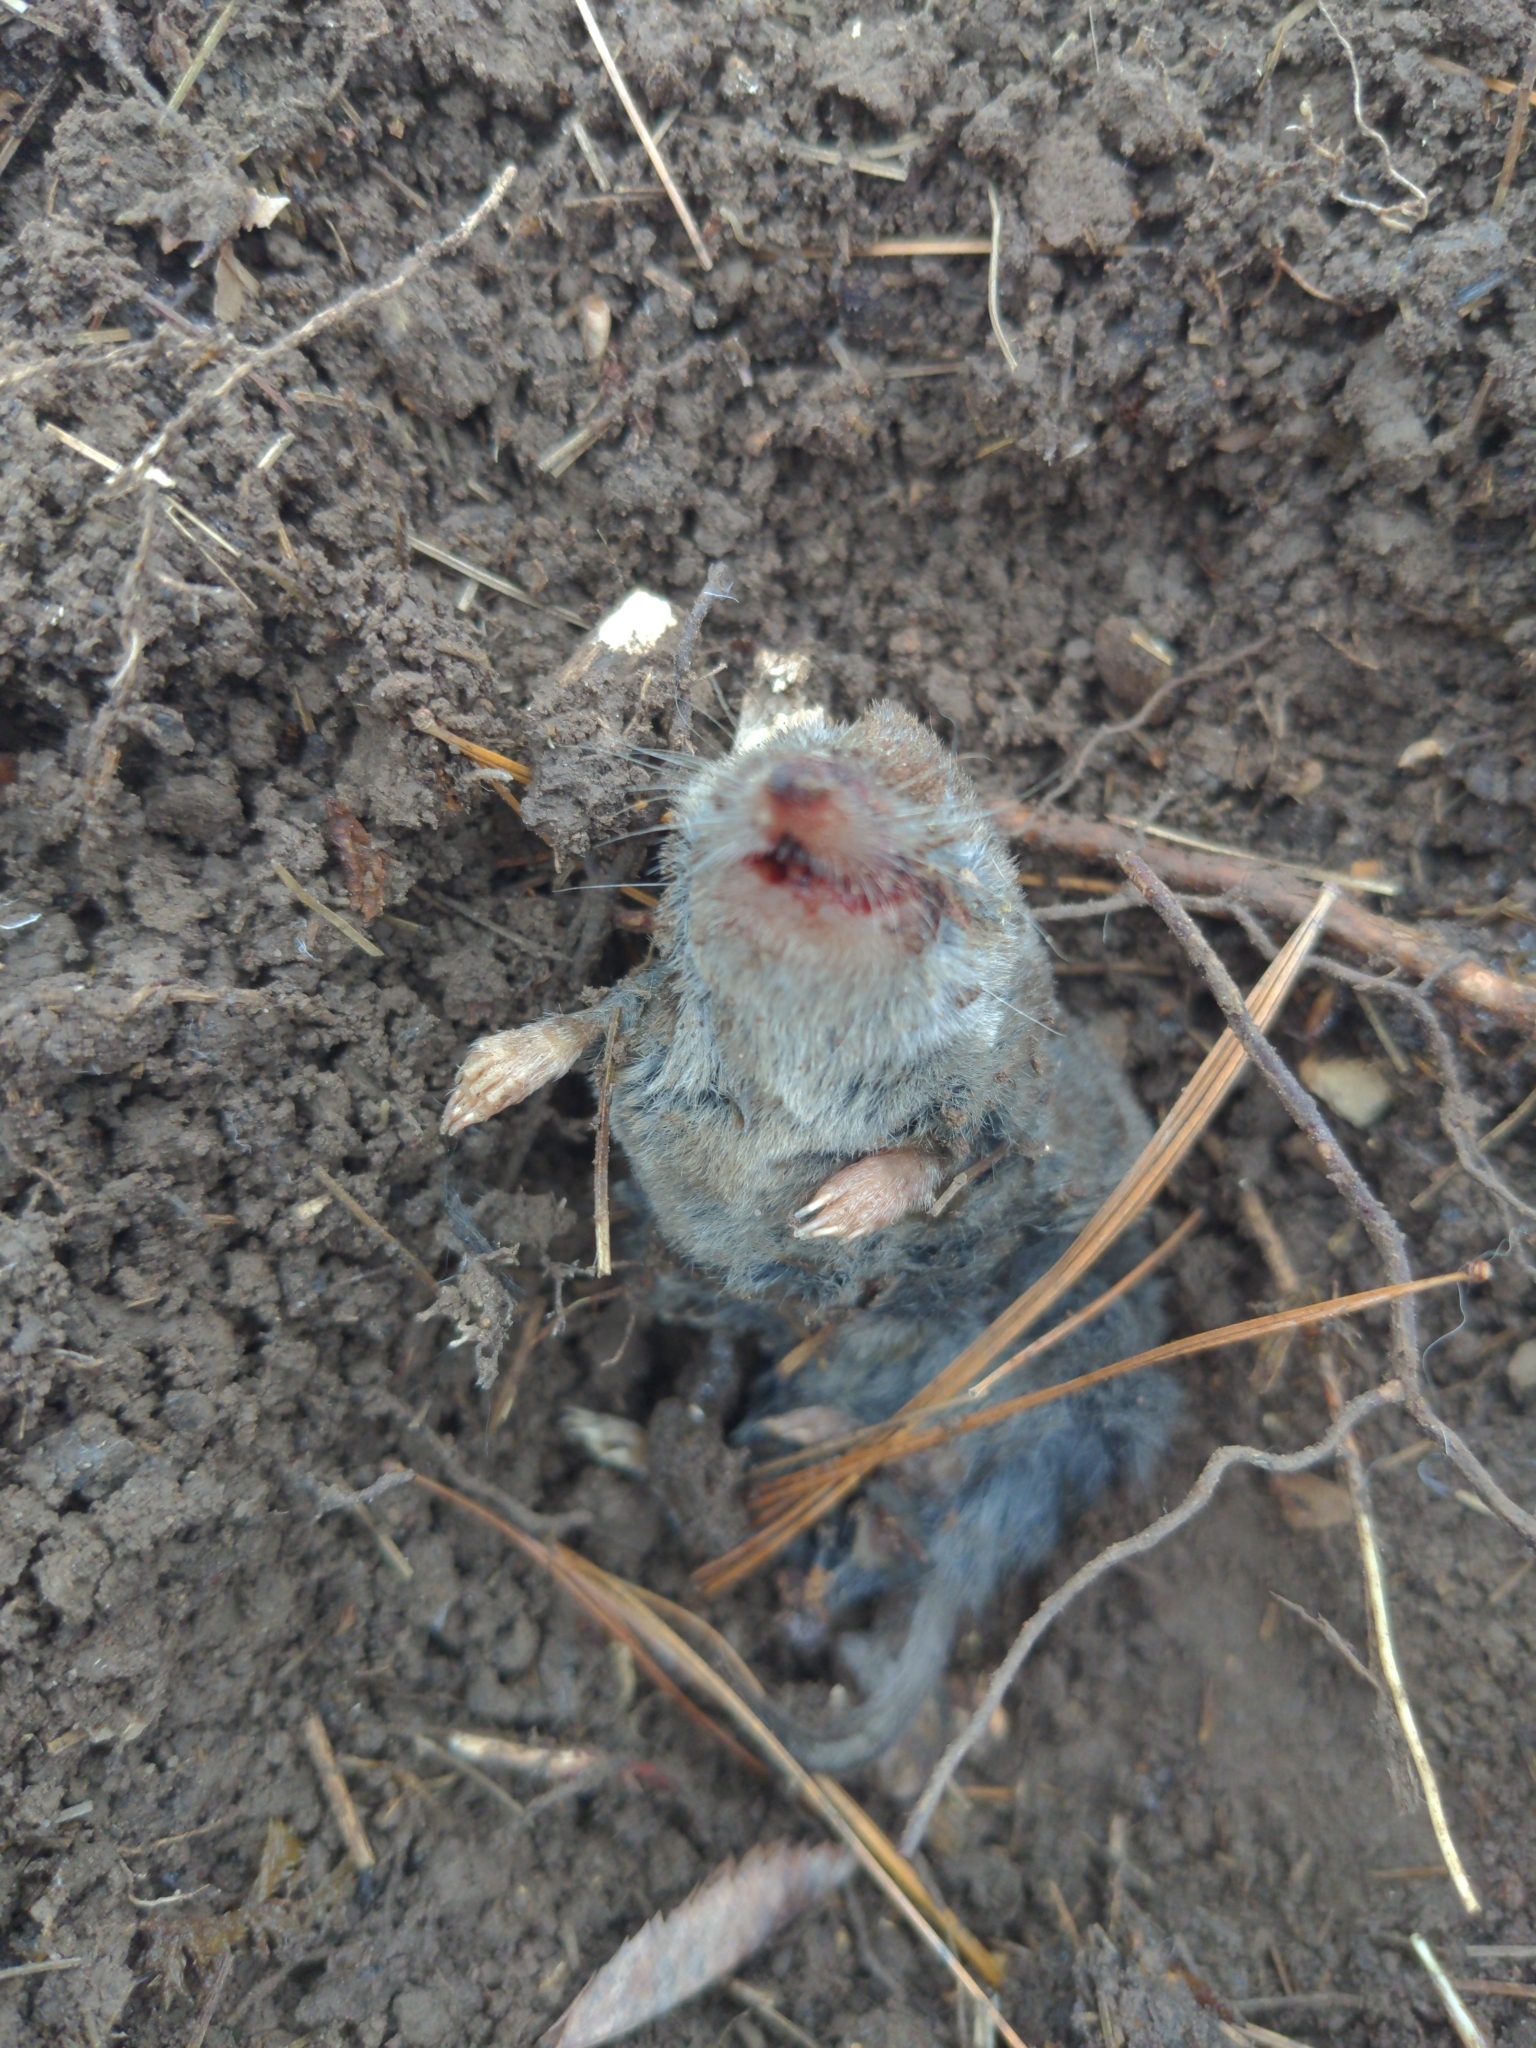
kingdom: Animalia
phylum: Chordata
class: Mammalia
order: Soricomorpha
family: Soricidae
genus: Blarina
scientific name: Blarina brevicauda
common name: Northern short-tailed shrew
